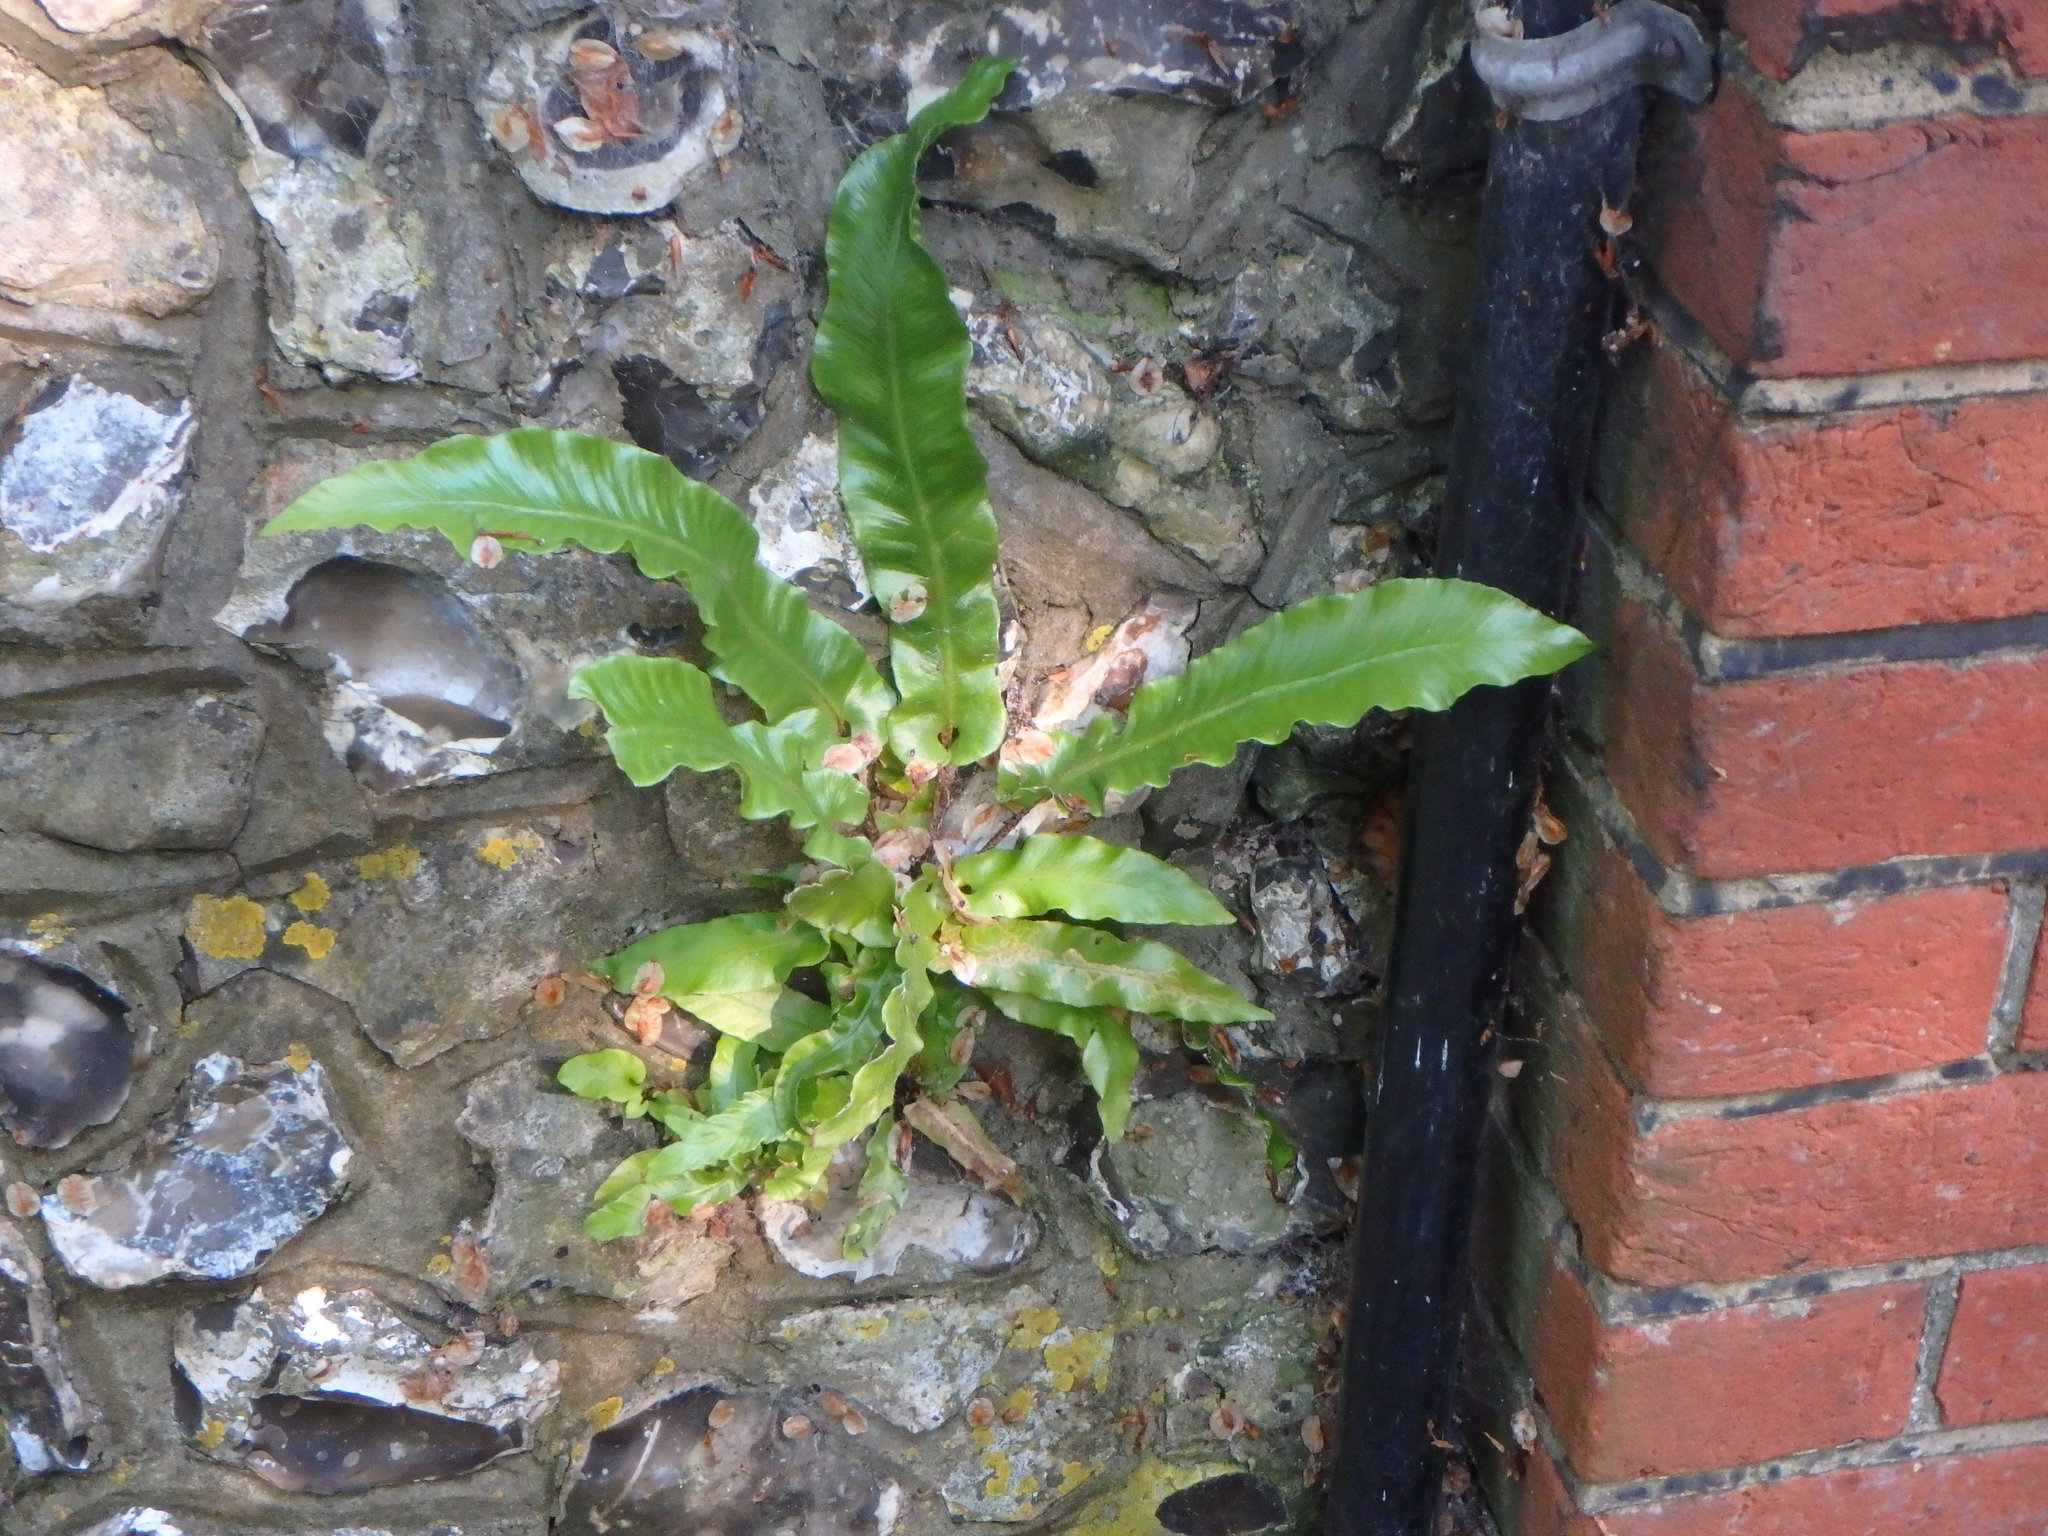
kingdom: Plantae
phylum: Tracheophyta
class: Polypodiopsida
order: Polypodiales
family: Aspleniaceae
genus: Asplenium
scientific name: Asplenium scolopendrium
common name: Hart's-tongue fern
